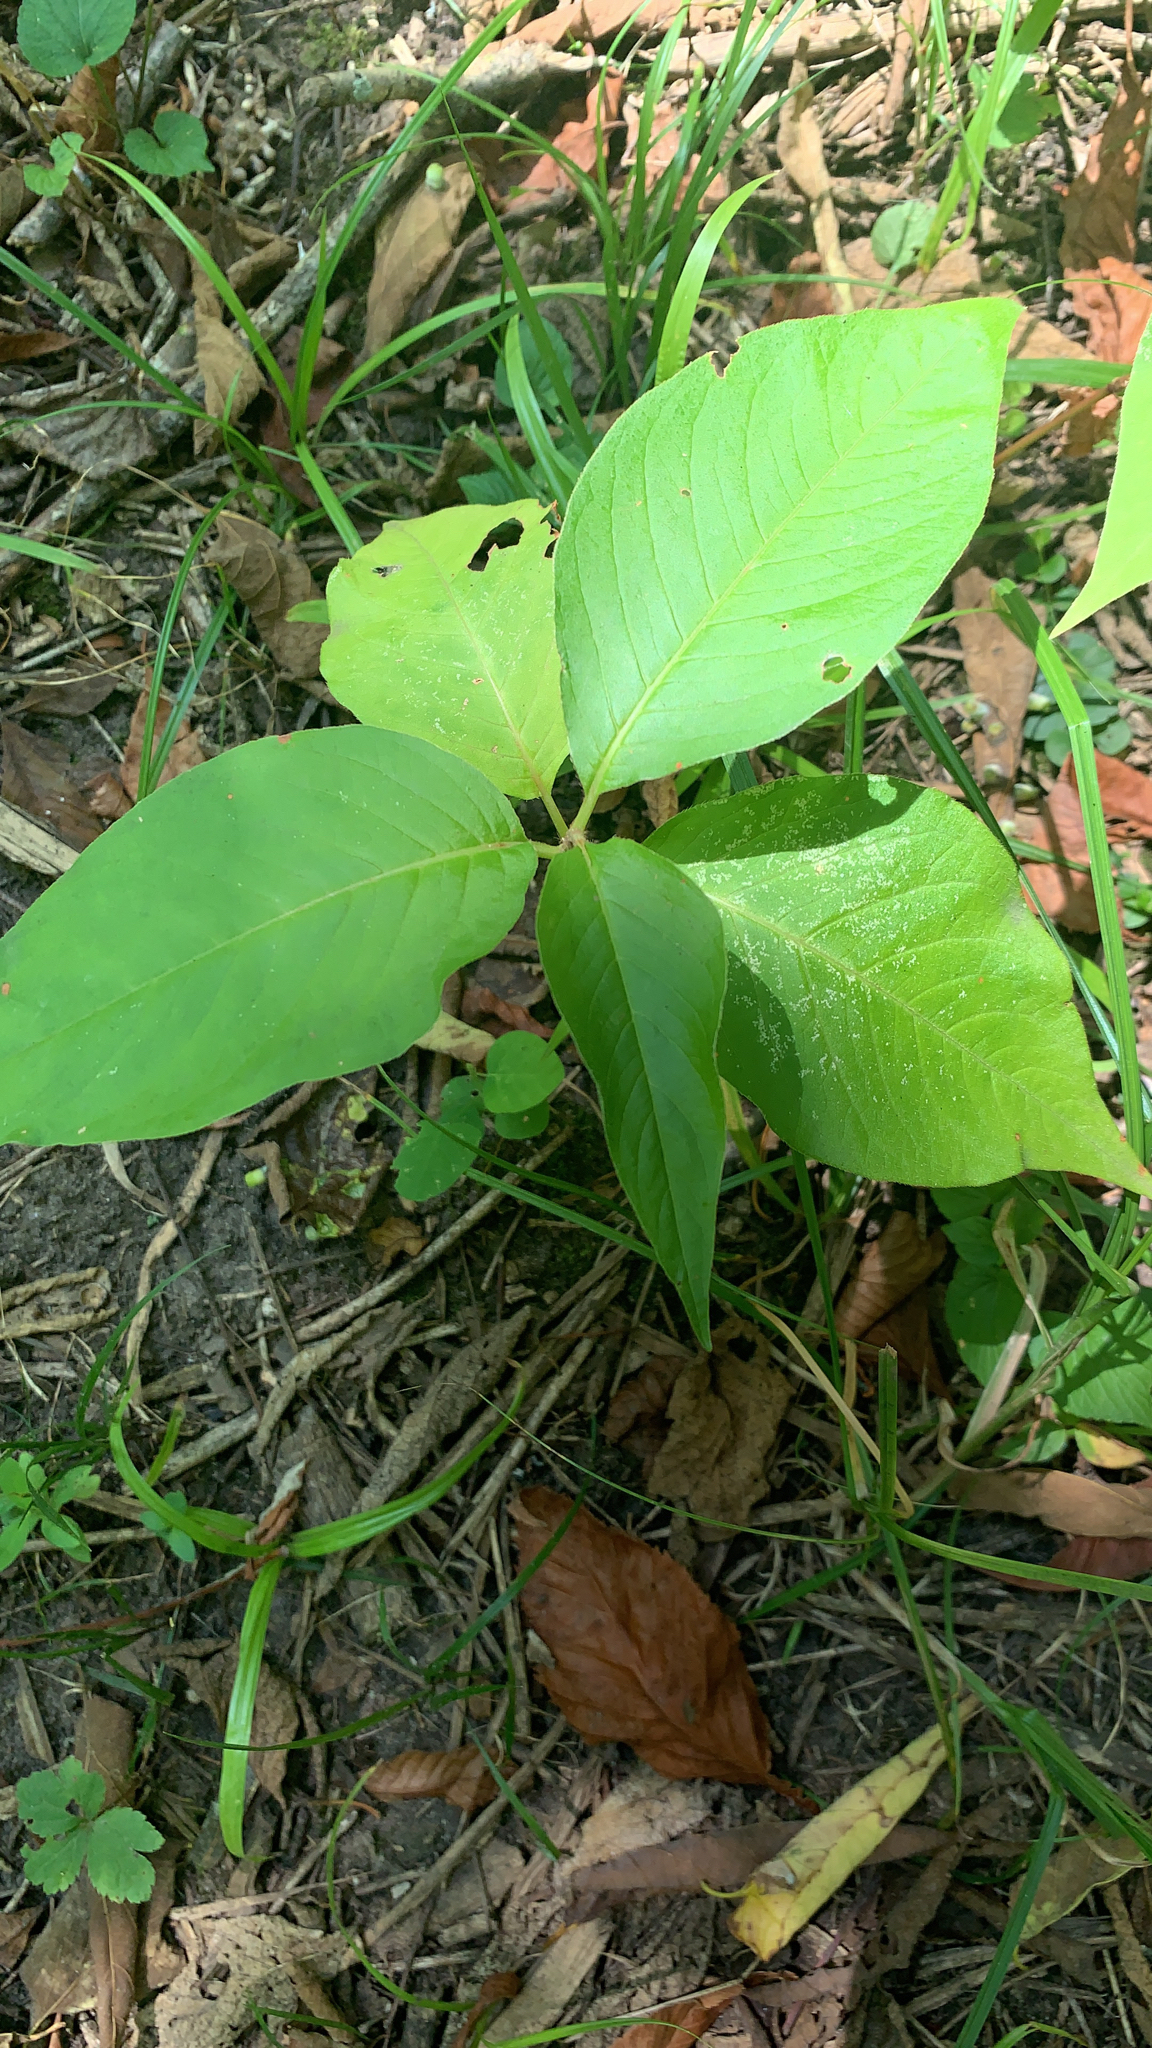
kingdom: Plantae
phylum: Tracheophyta
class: Magnoliopsida
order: Caryophyllales
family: Polygonaceae
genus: Persicaria
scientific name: Persicaria virginiana
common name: Jumpseed
